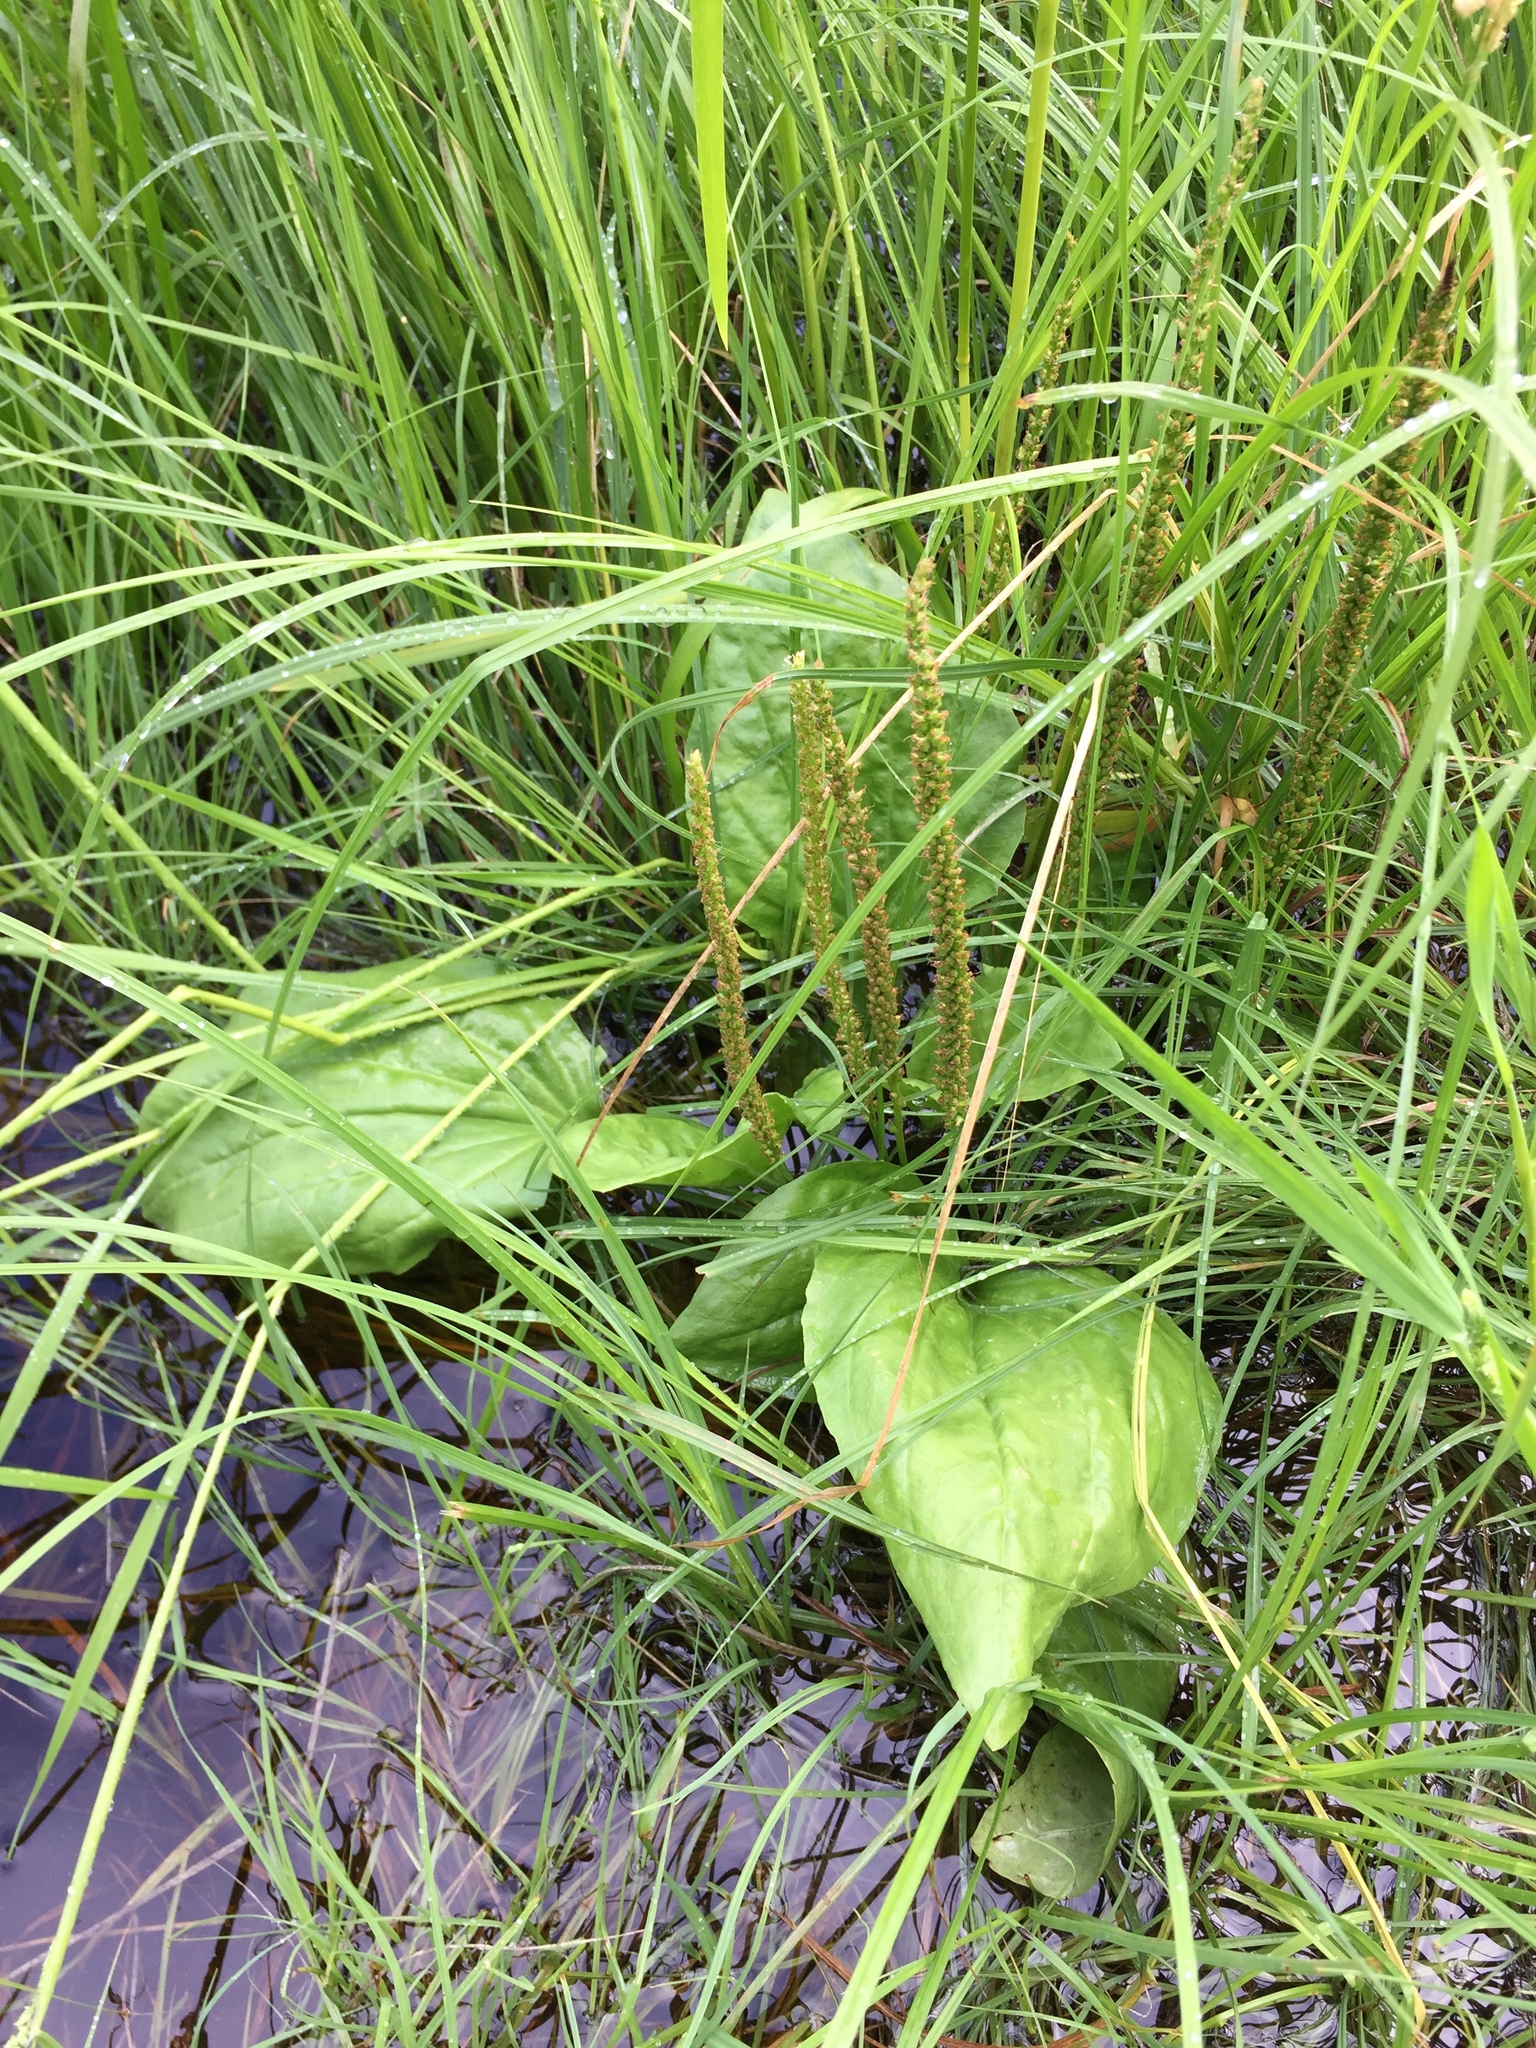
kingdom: Plantae
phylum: Tracheophyta
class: Magnoliopsida
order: Lamiales
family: Plantaginaceae
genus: Plantago
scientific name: Plantago major
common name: Common plantain
